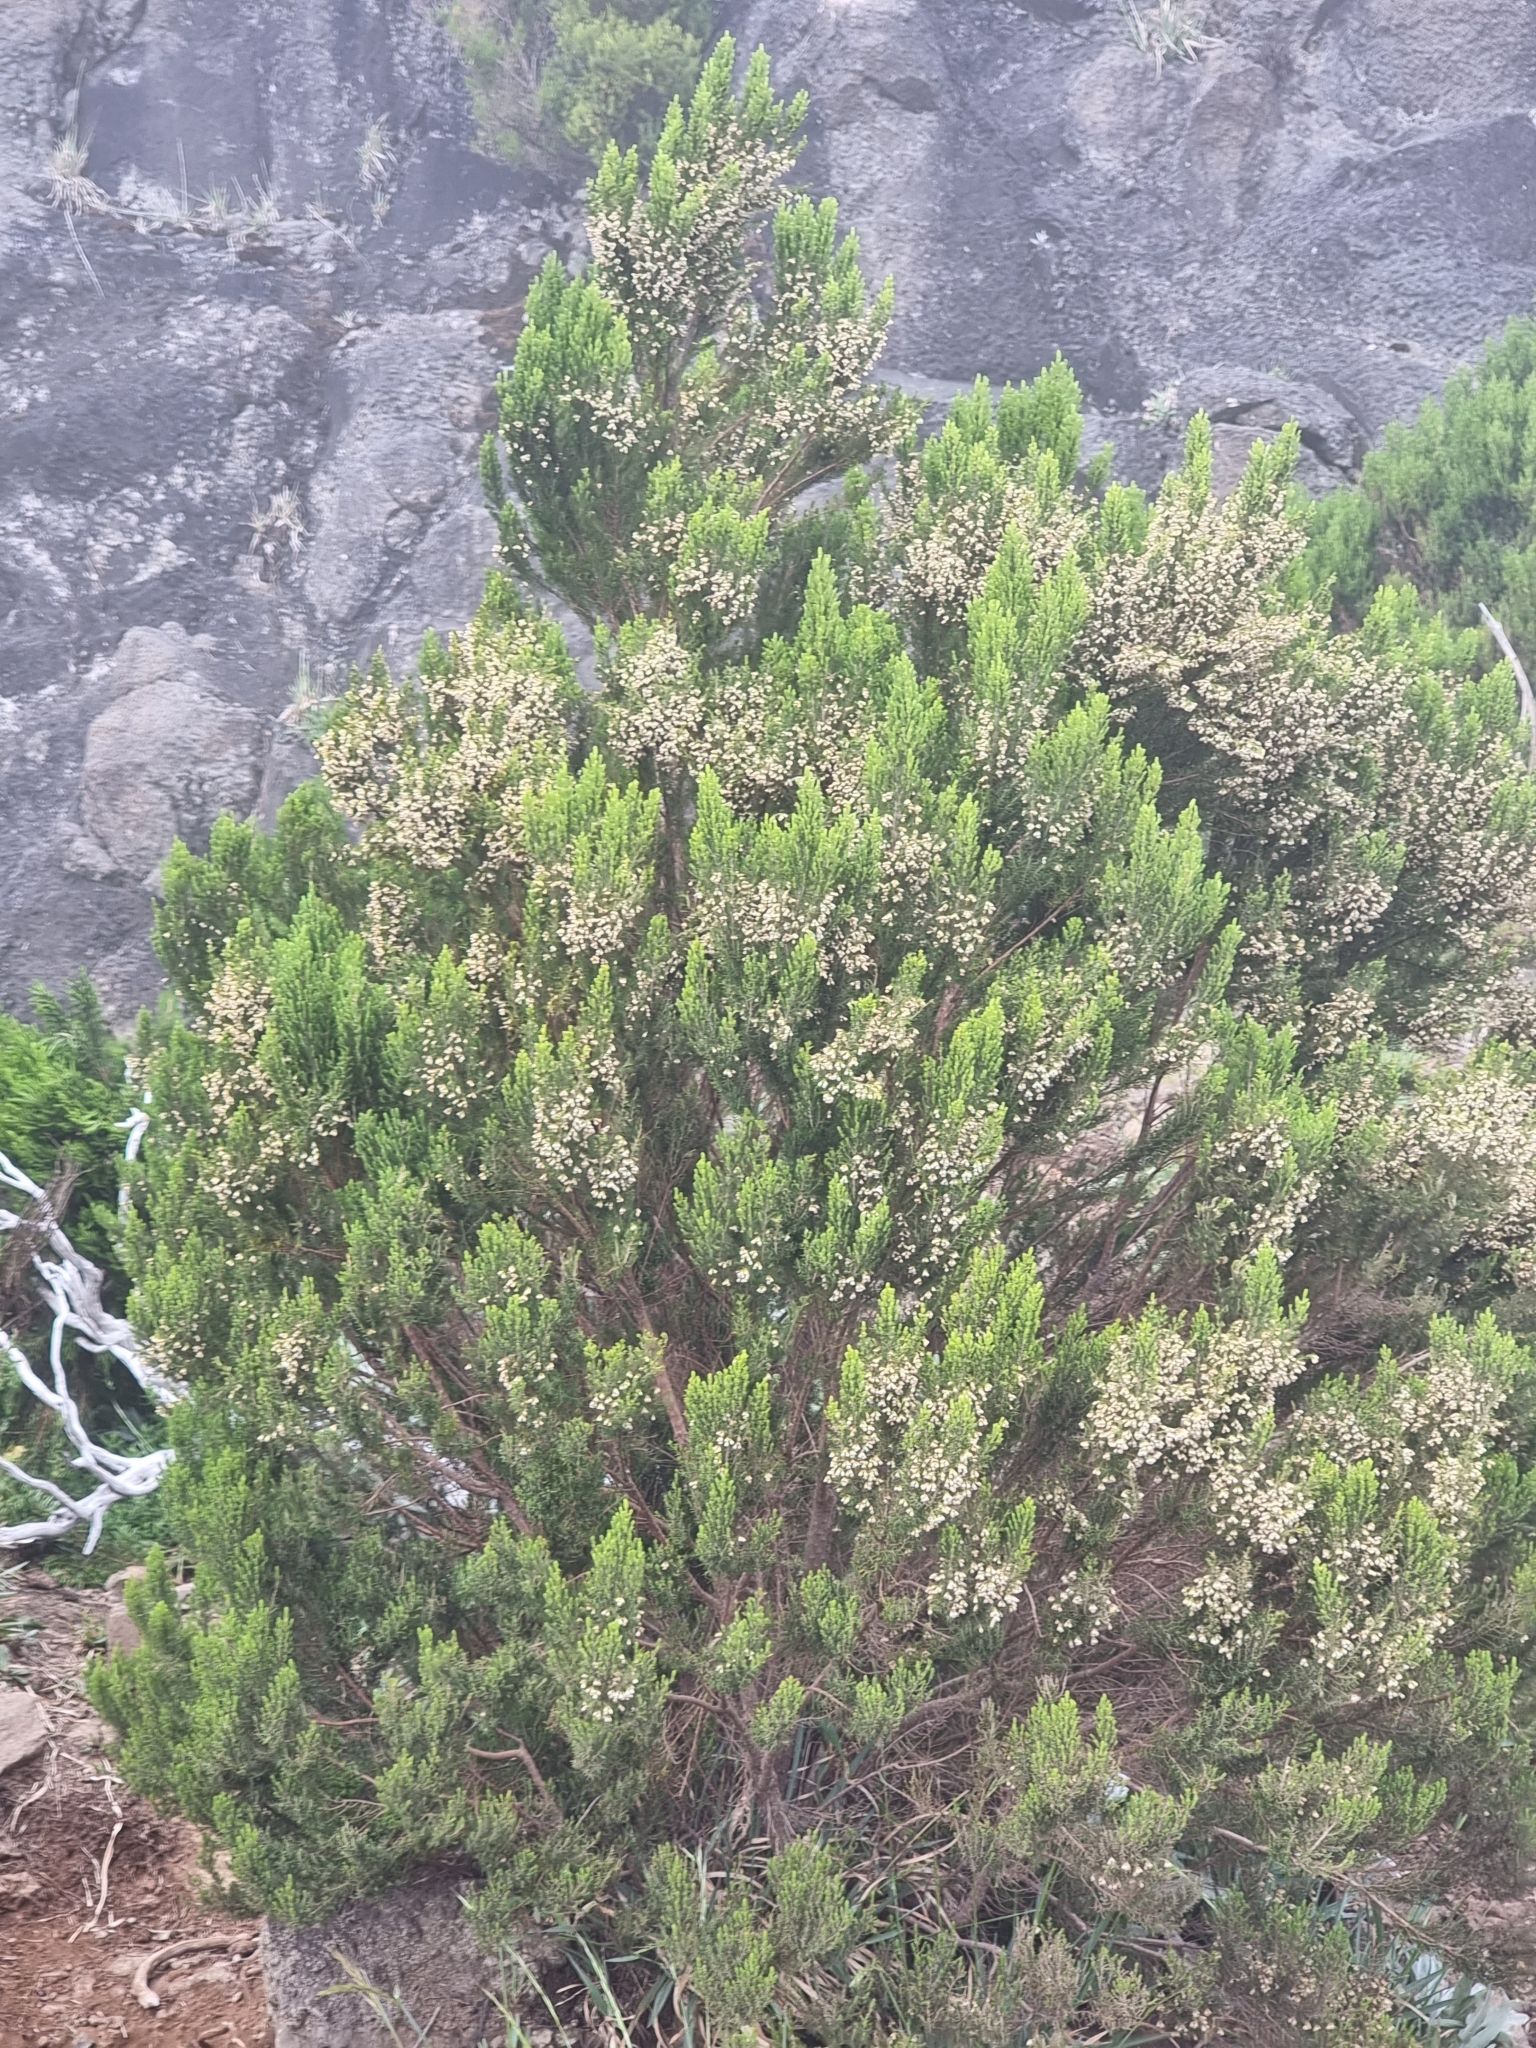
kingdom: Plantae
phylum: Tracheophyta
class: Magnoliopsida
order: Ericales
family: Ericaceae
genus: Erica
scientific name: Erica canariensis
